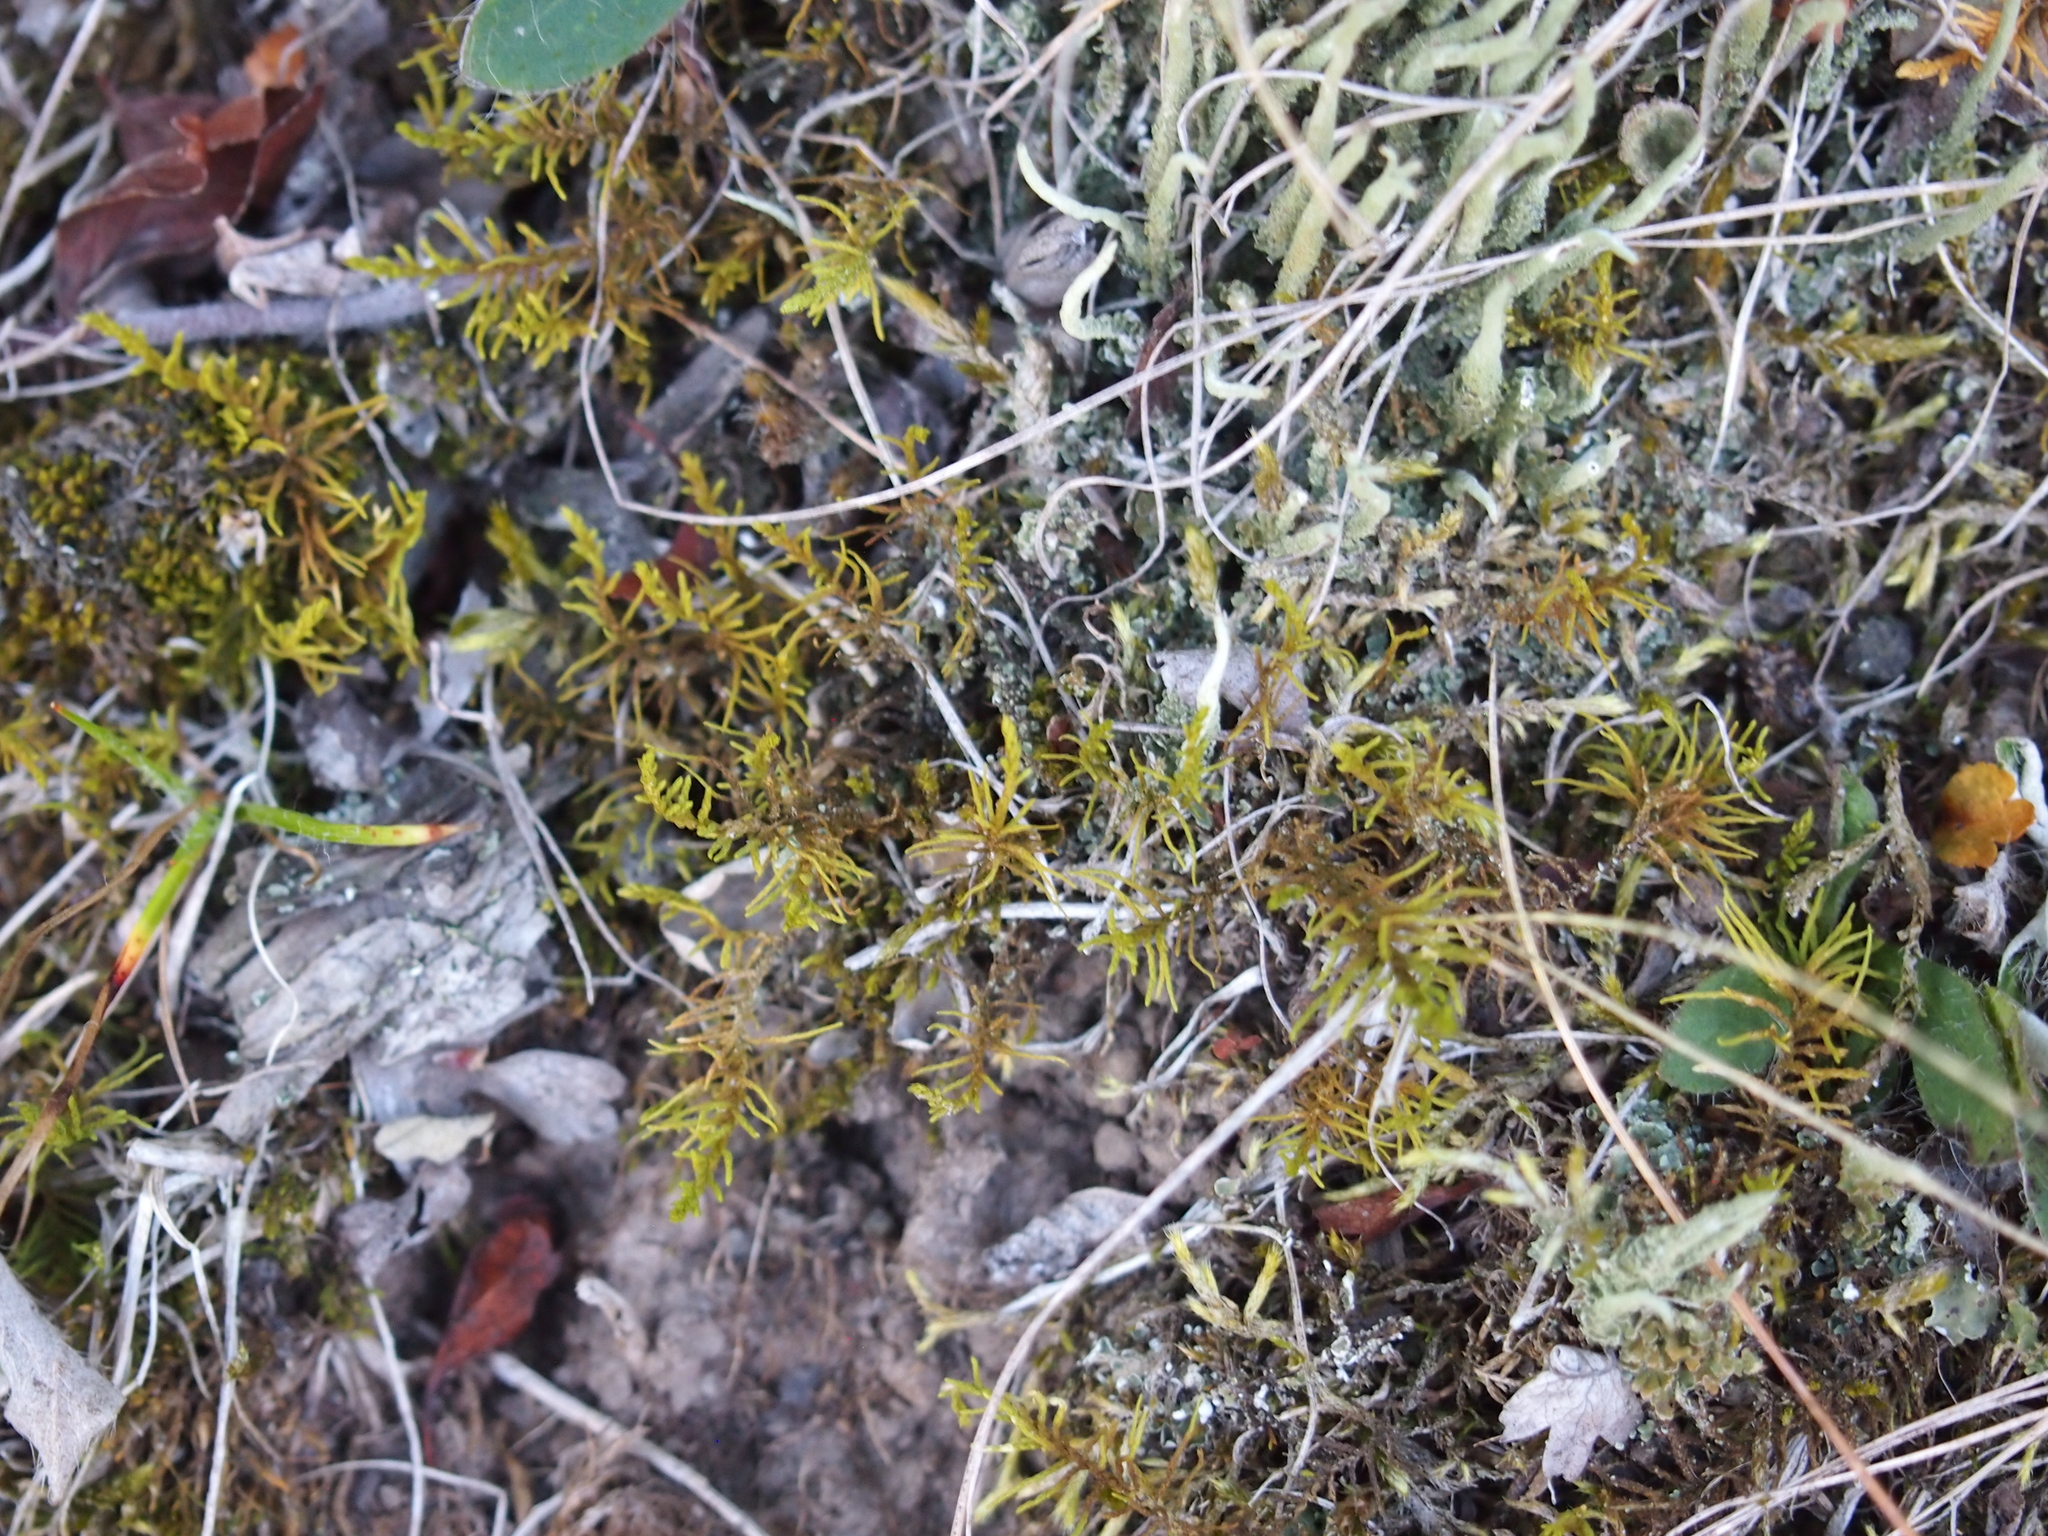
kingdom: Plantae
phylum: Bryophyta
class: Bryopsida
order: Hypnales
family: Thuidiaceae
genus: Abietinella
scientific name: Abietinella abietina
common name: Wiry fern moss
